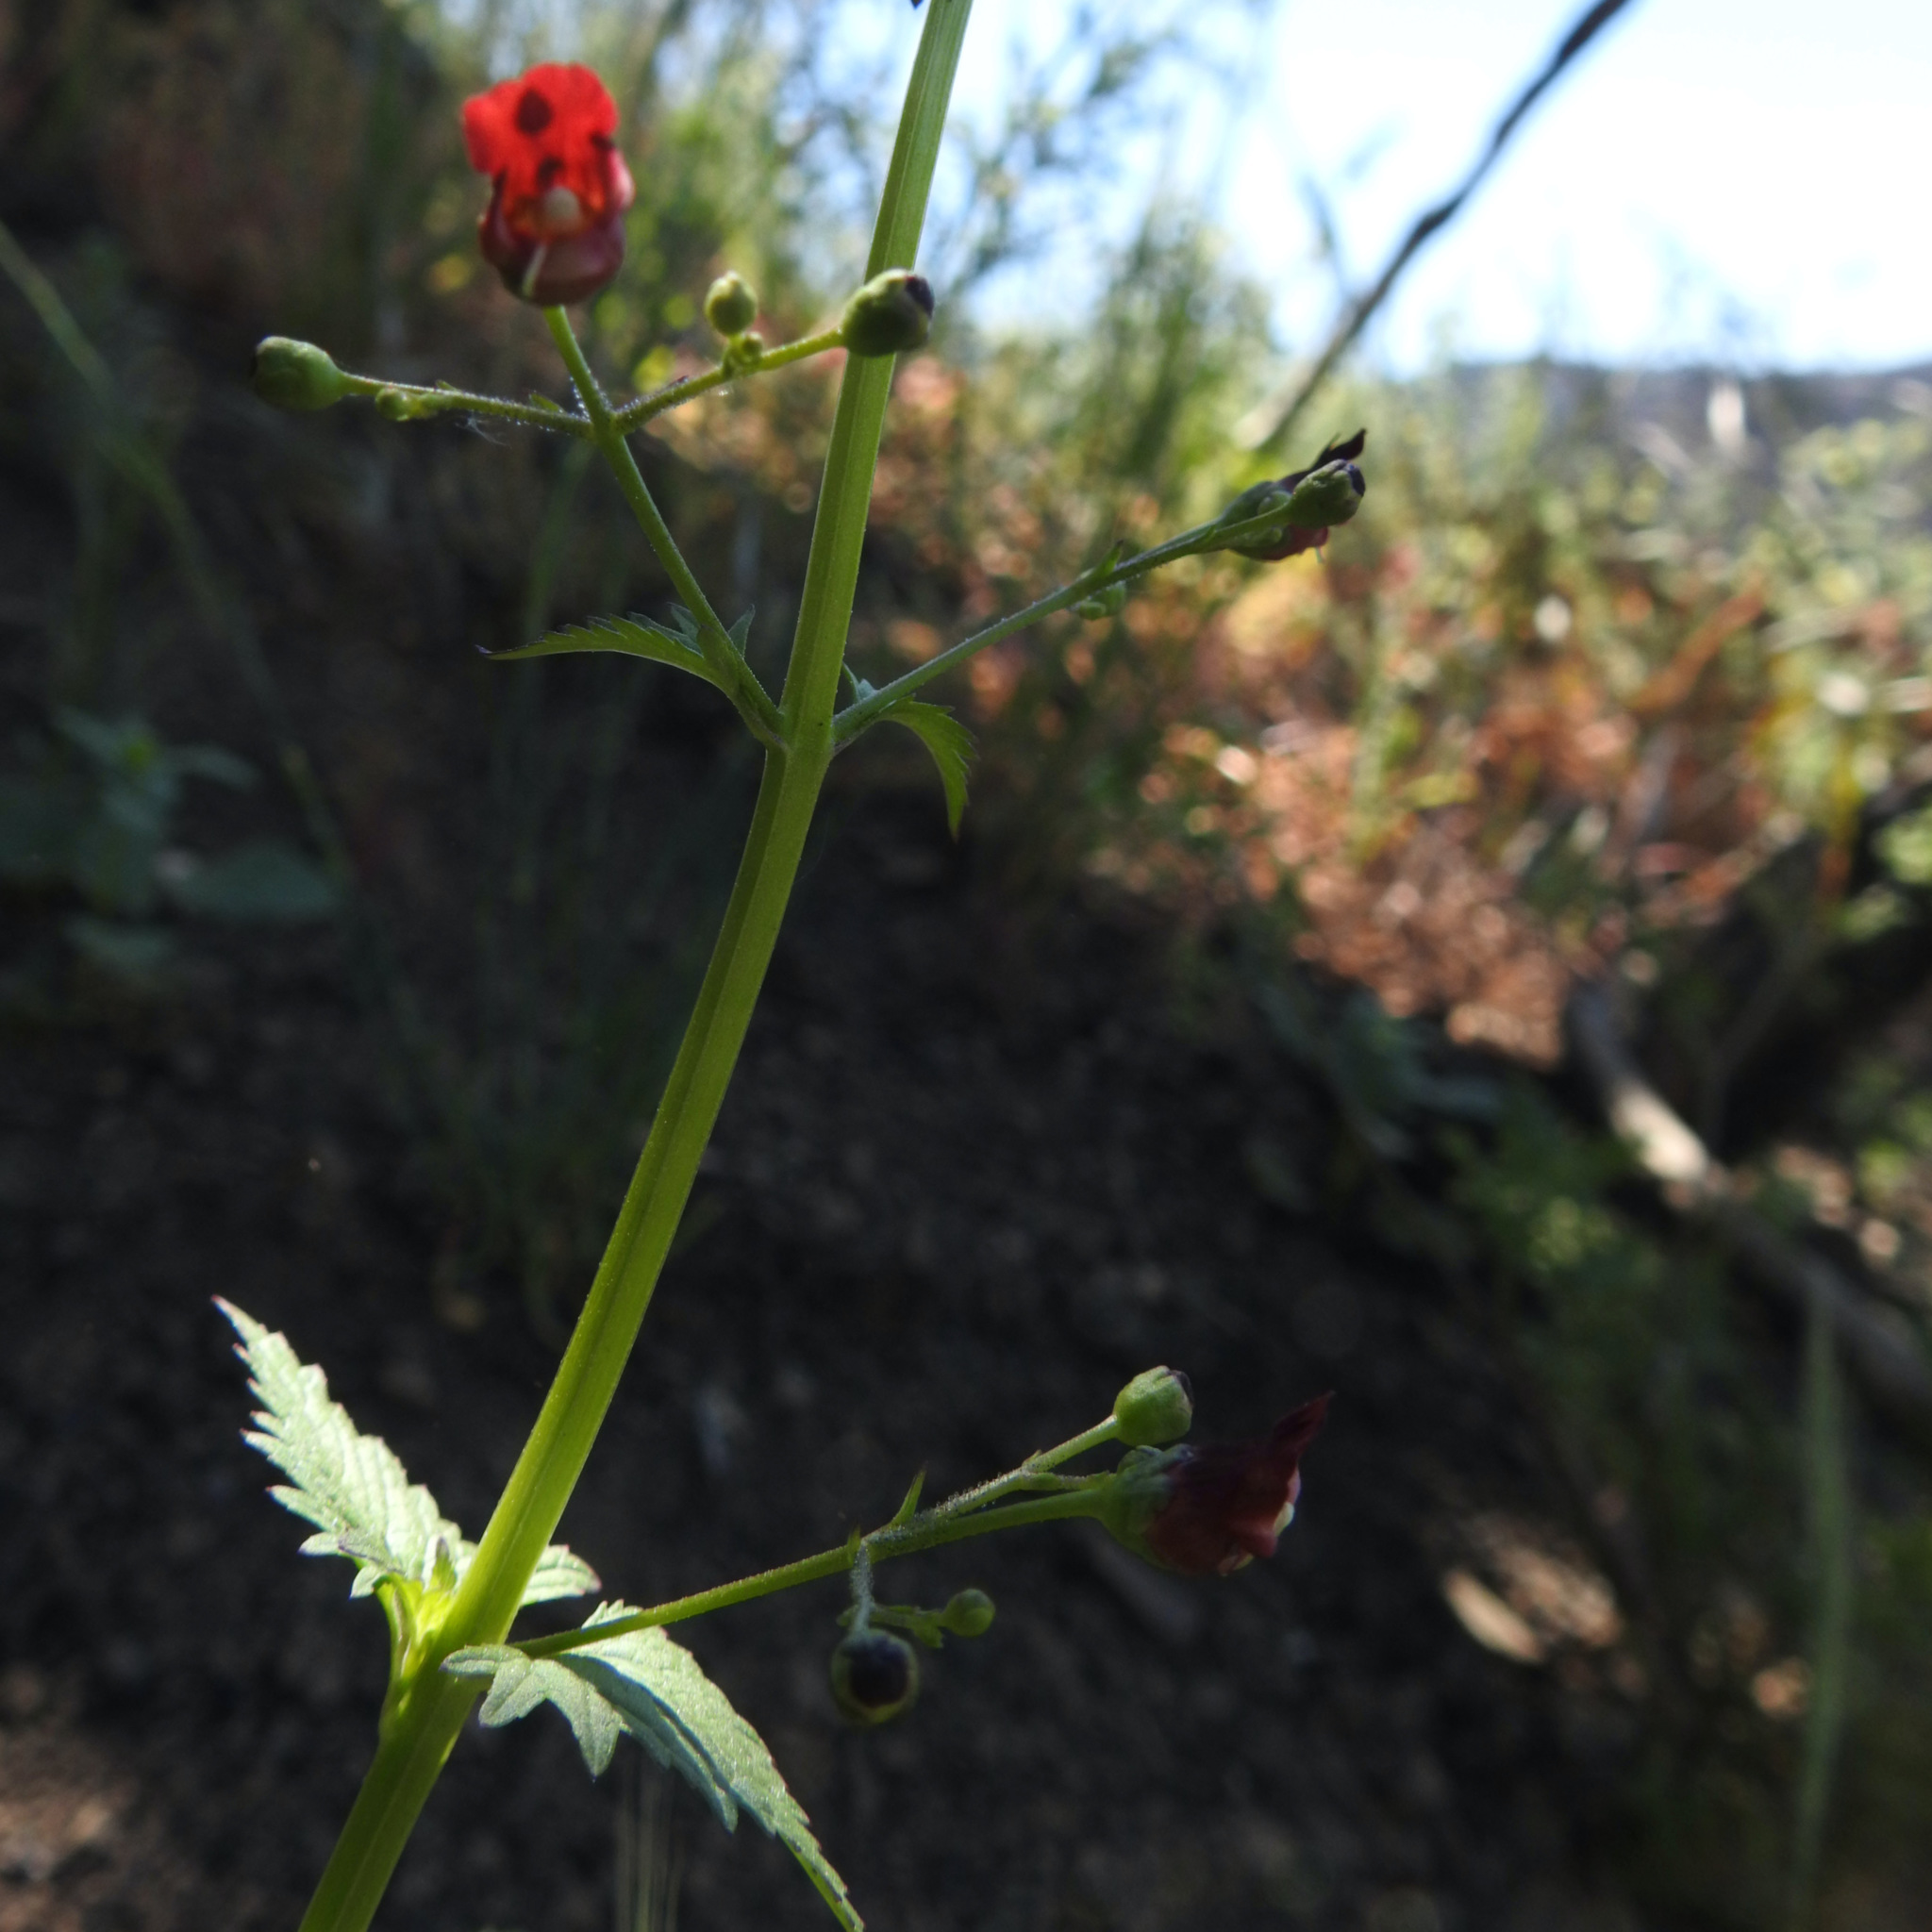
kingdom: Plantae
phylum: Tracheophyta
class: Magnoliopsida
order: Lamiales
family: Scrophulariaceae
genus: Scrophularia
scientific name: Scrophularia californica
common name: California figwort
